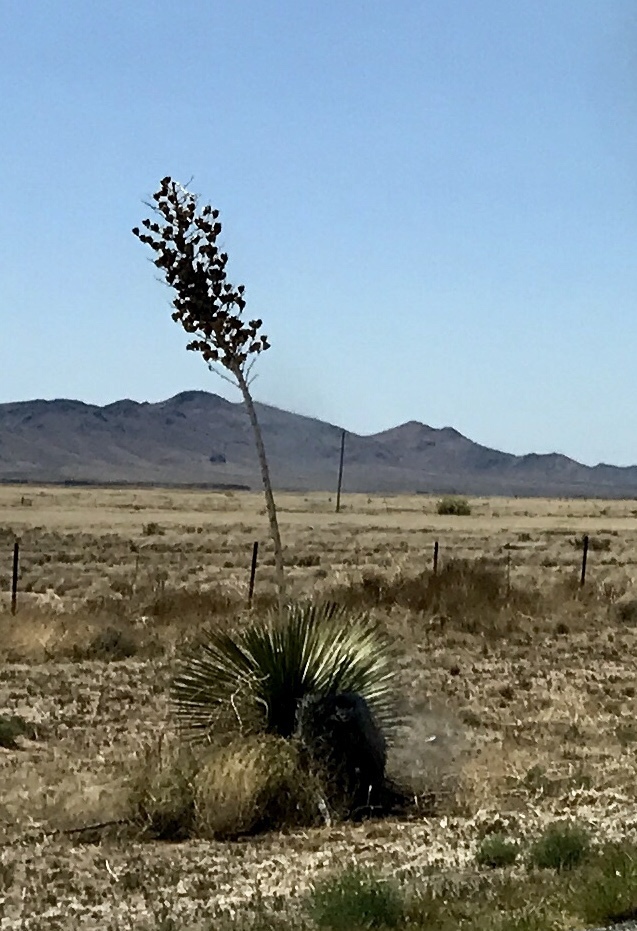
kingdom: Plantae
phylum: Tracheophyta
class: Liliopsida
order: Asparagales
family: Asparagaceae
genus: Yucca
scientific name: Yucca elata
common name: Palmella
